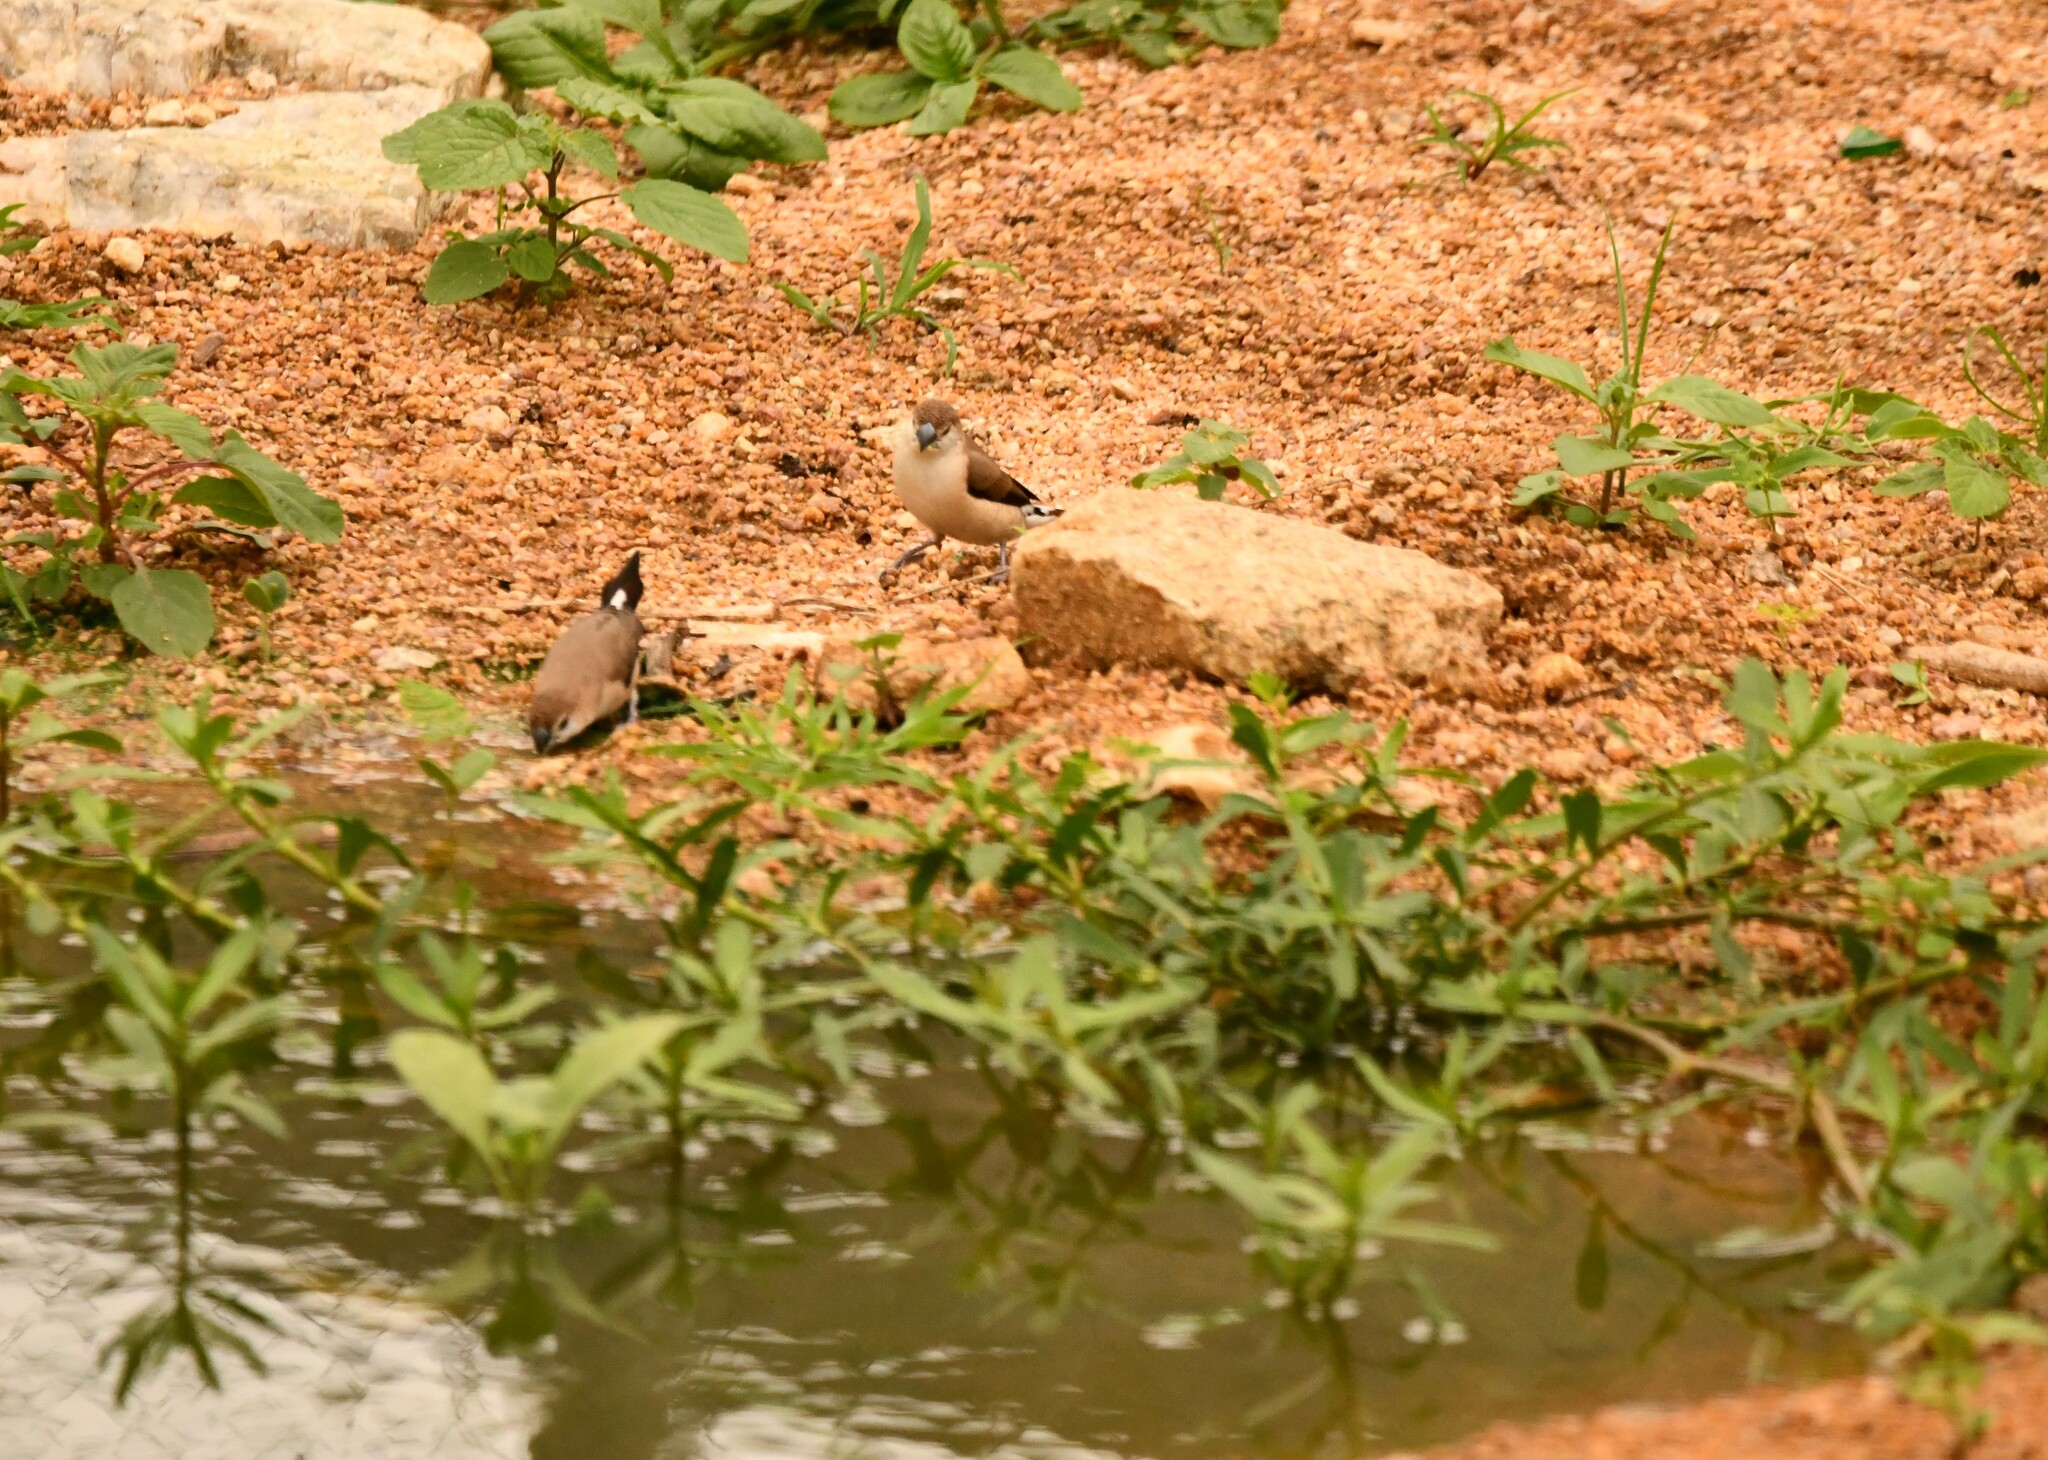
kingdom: Animalia
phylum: Chordata
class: Aves
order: Passeriformes
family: Estrildidae
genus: Euodice
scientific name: Euodice malabarica
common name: Indian silverbill
